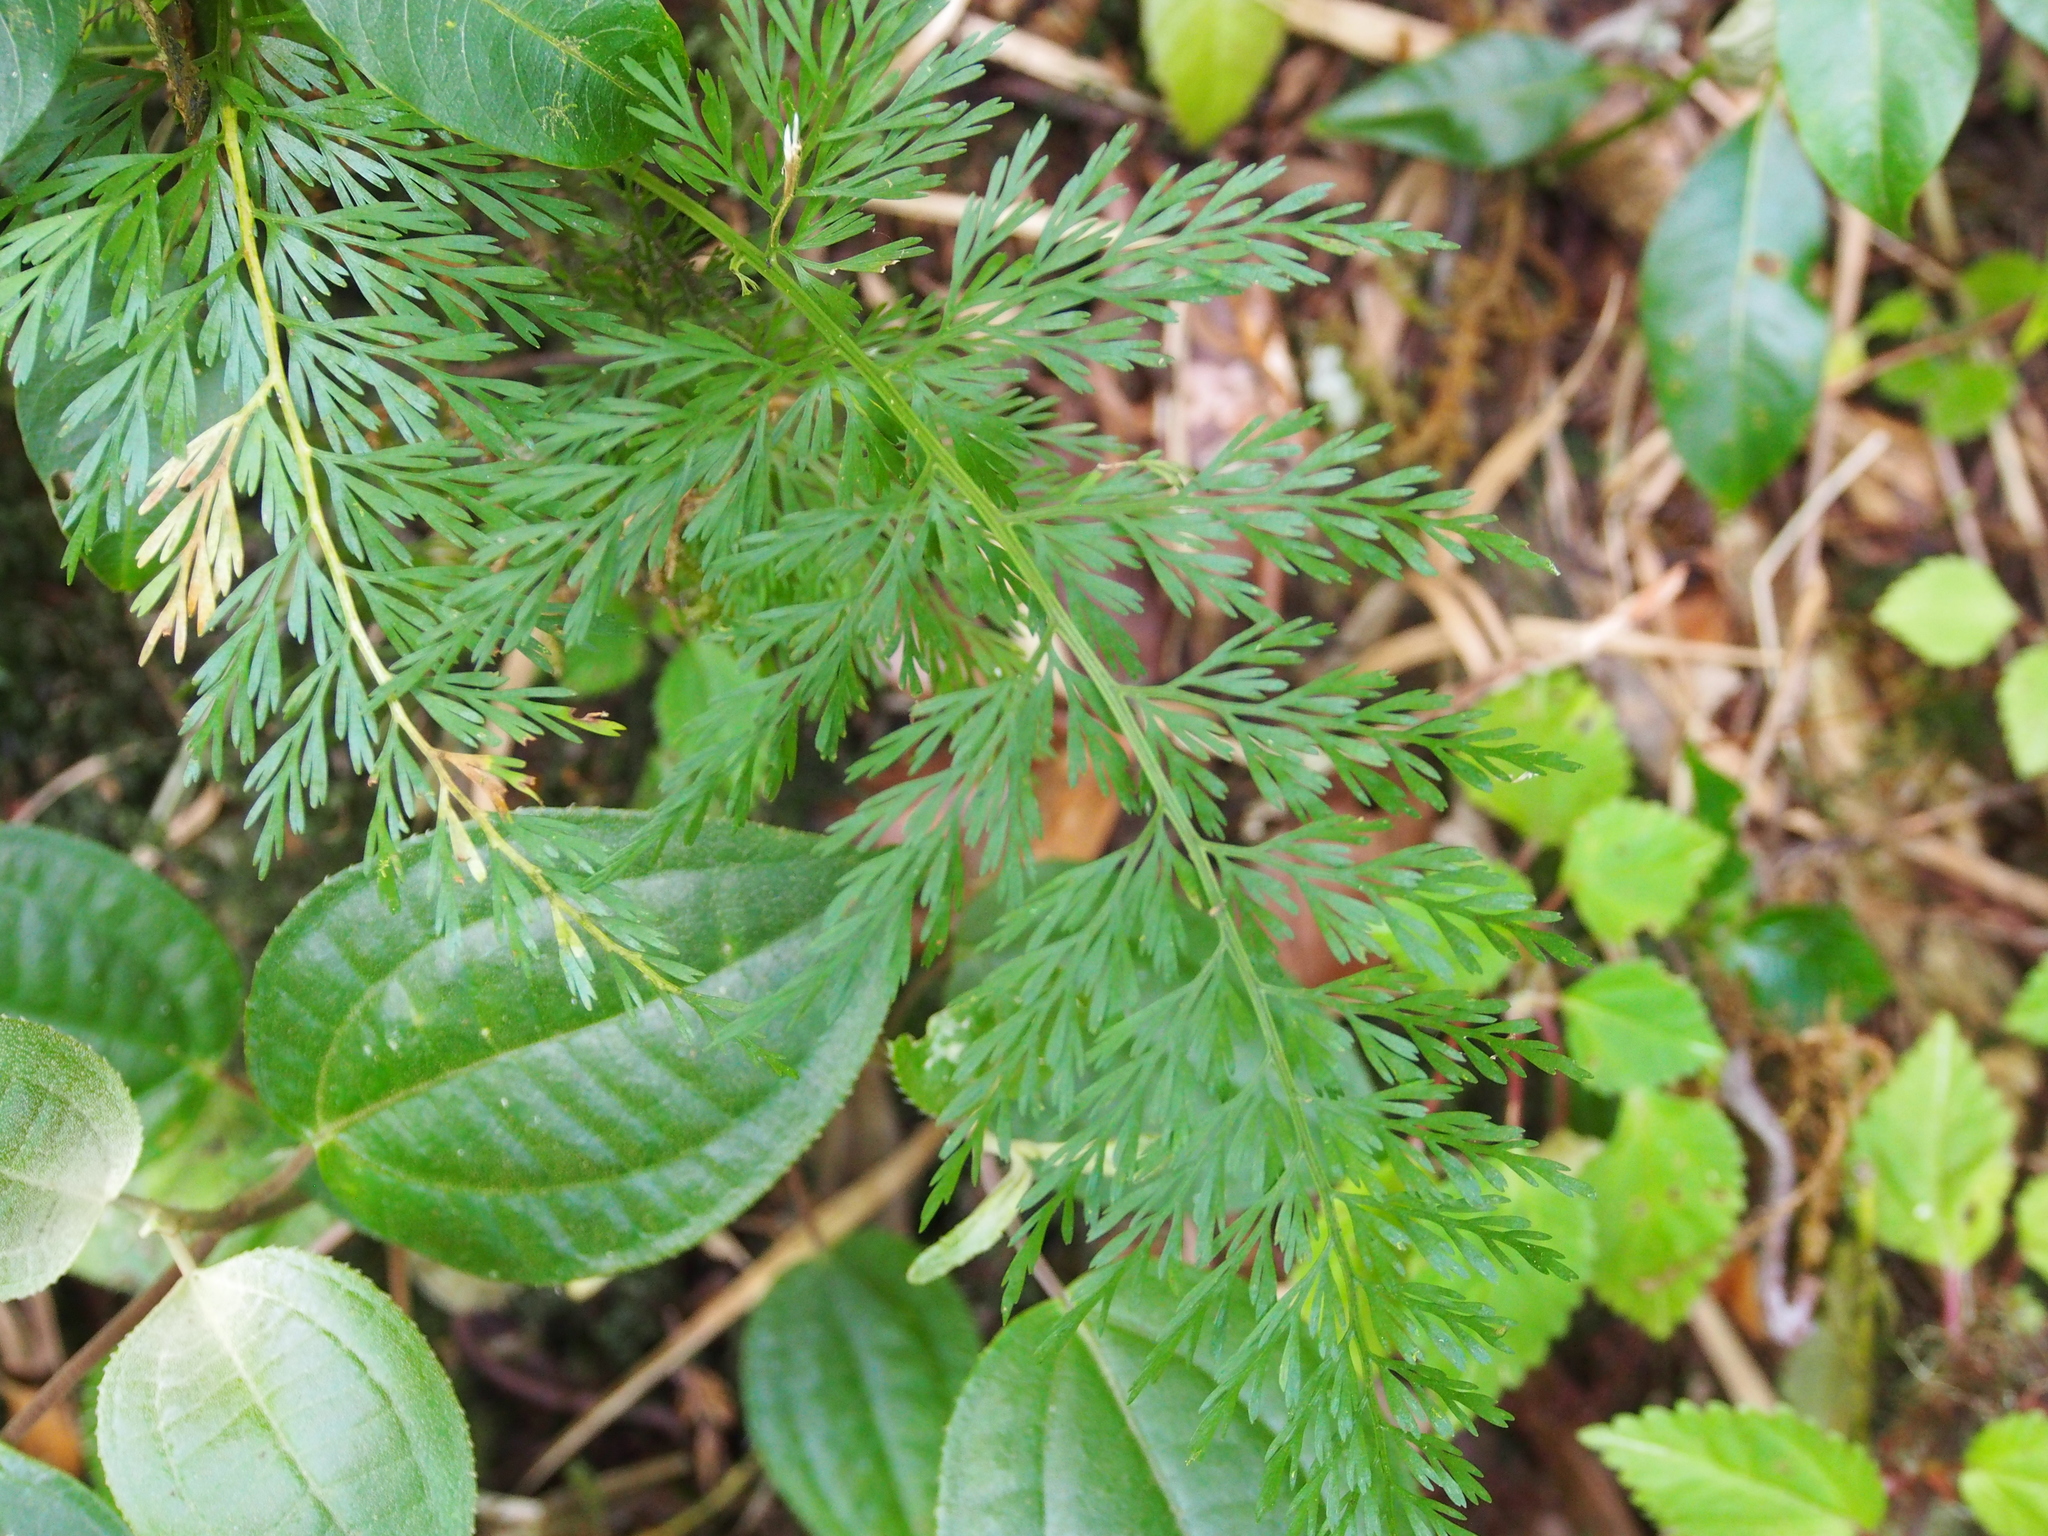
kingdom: Plantae
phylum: Tracheophyta
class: Polypodiopsida
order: Polypodiales
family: Aspleniaceae
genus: Asplenium
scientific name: Asplenium fragrans
